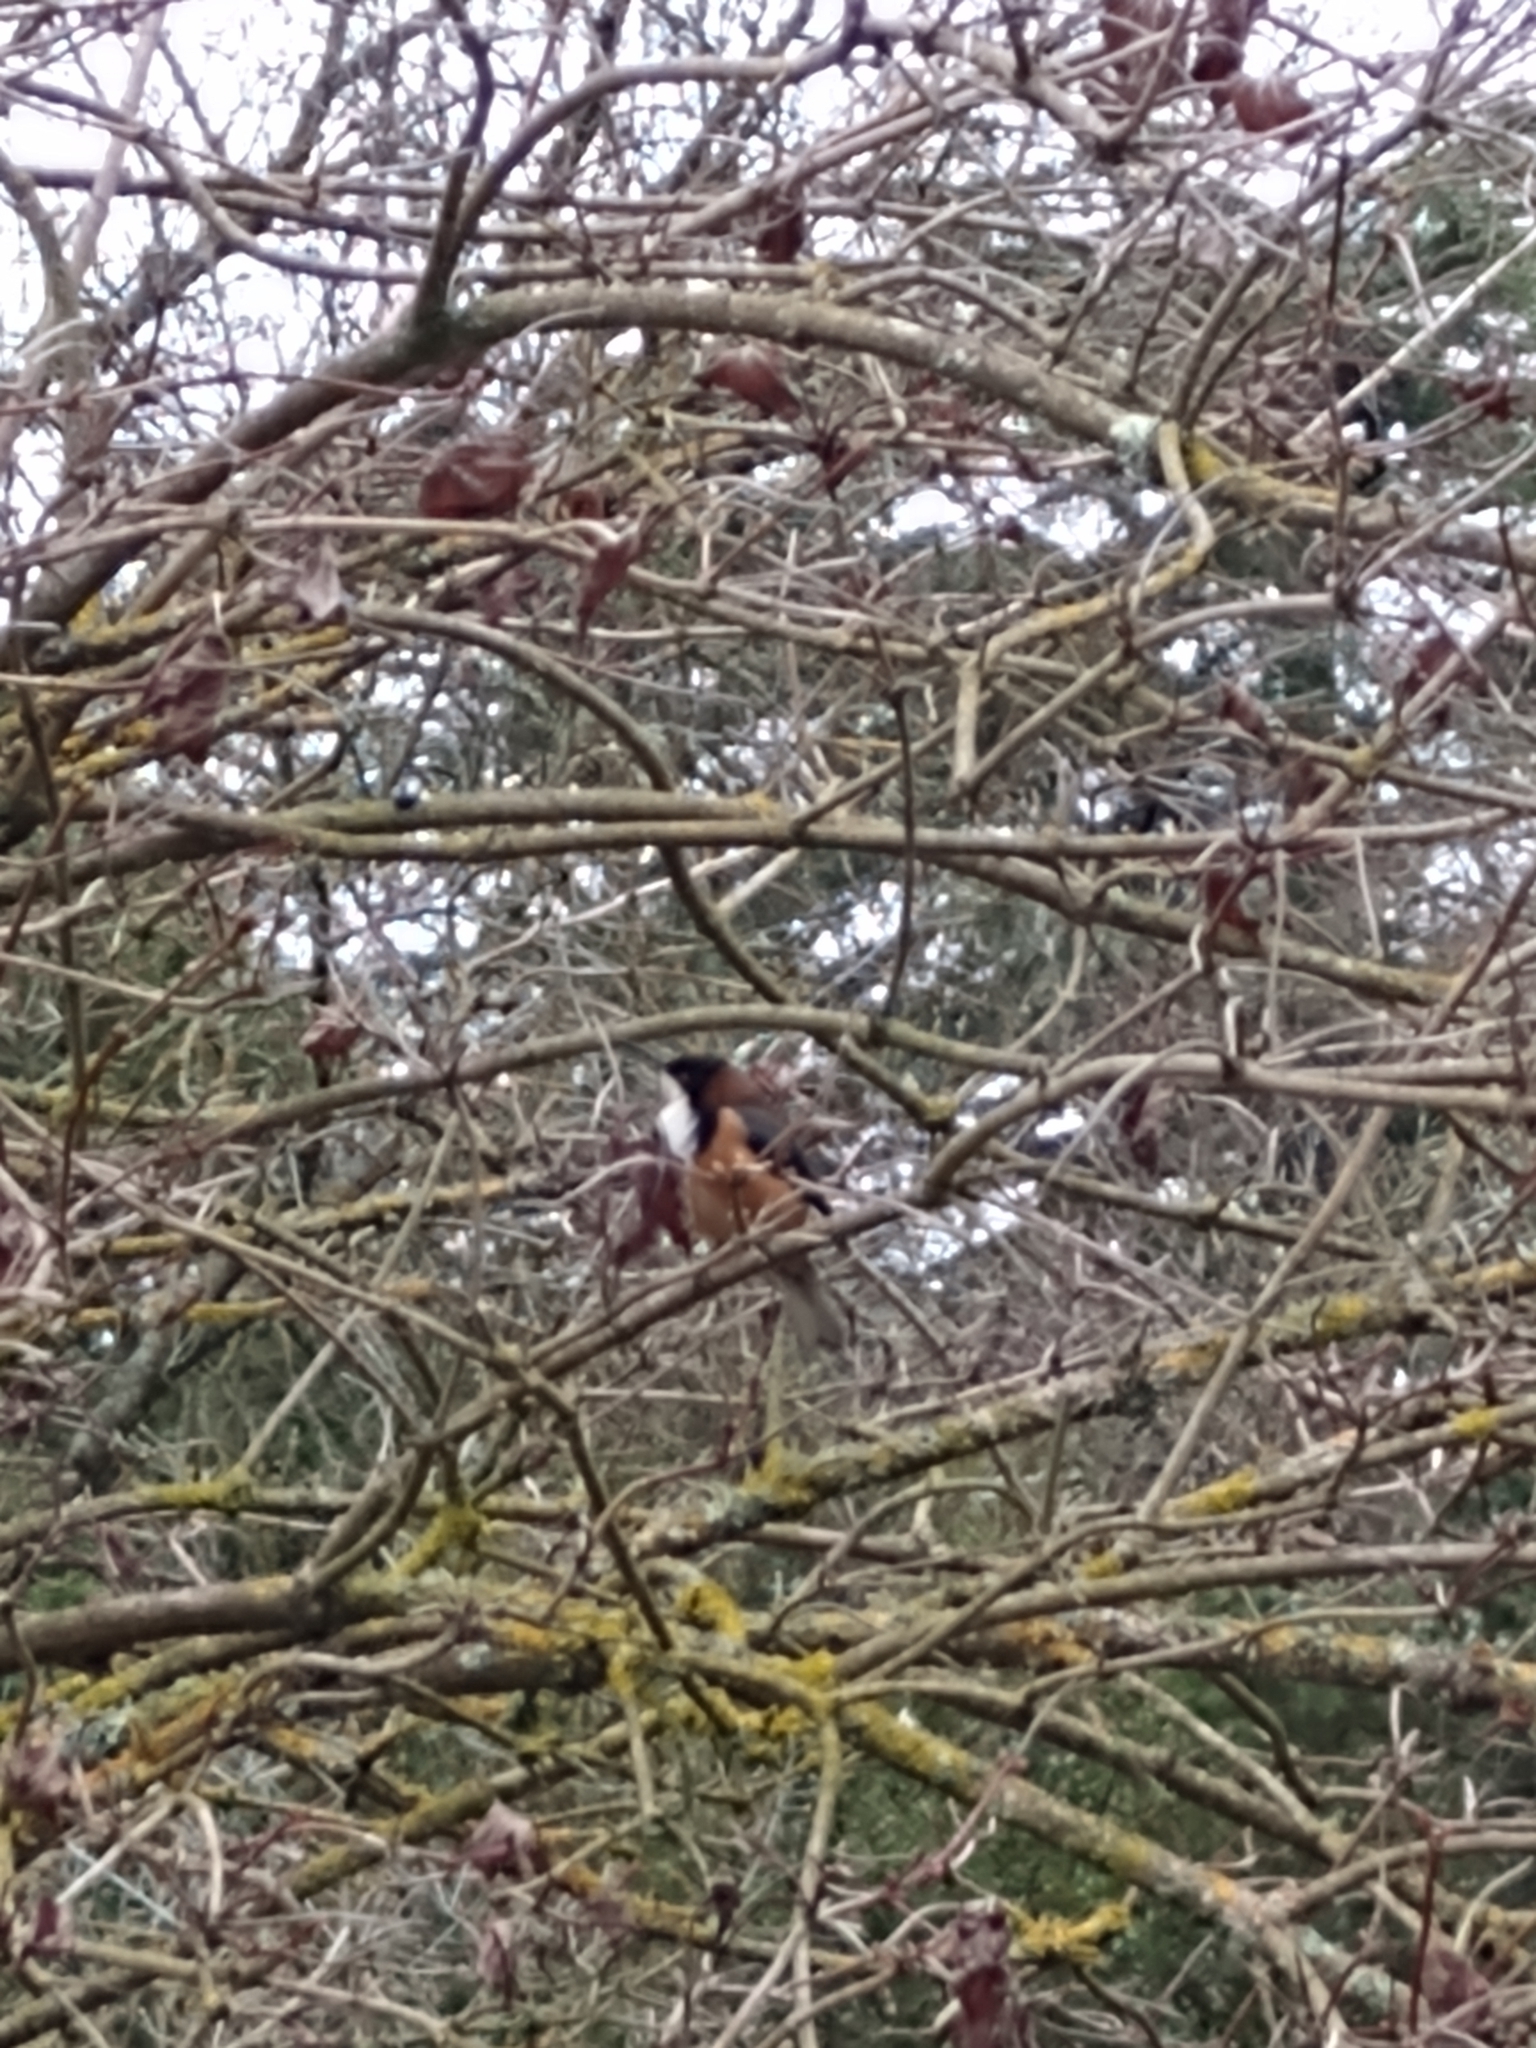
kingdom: Animalia
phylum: Chordata
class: Aves
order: Passeriformes
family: Meliphagidae
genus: Acanthorhynchus
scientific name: Acanthorhynchus tenuirostris
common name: Eastern spinebill
